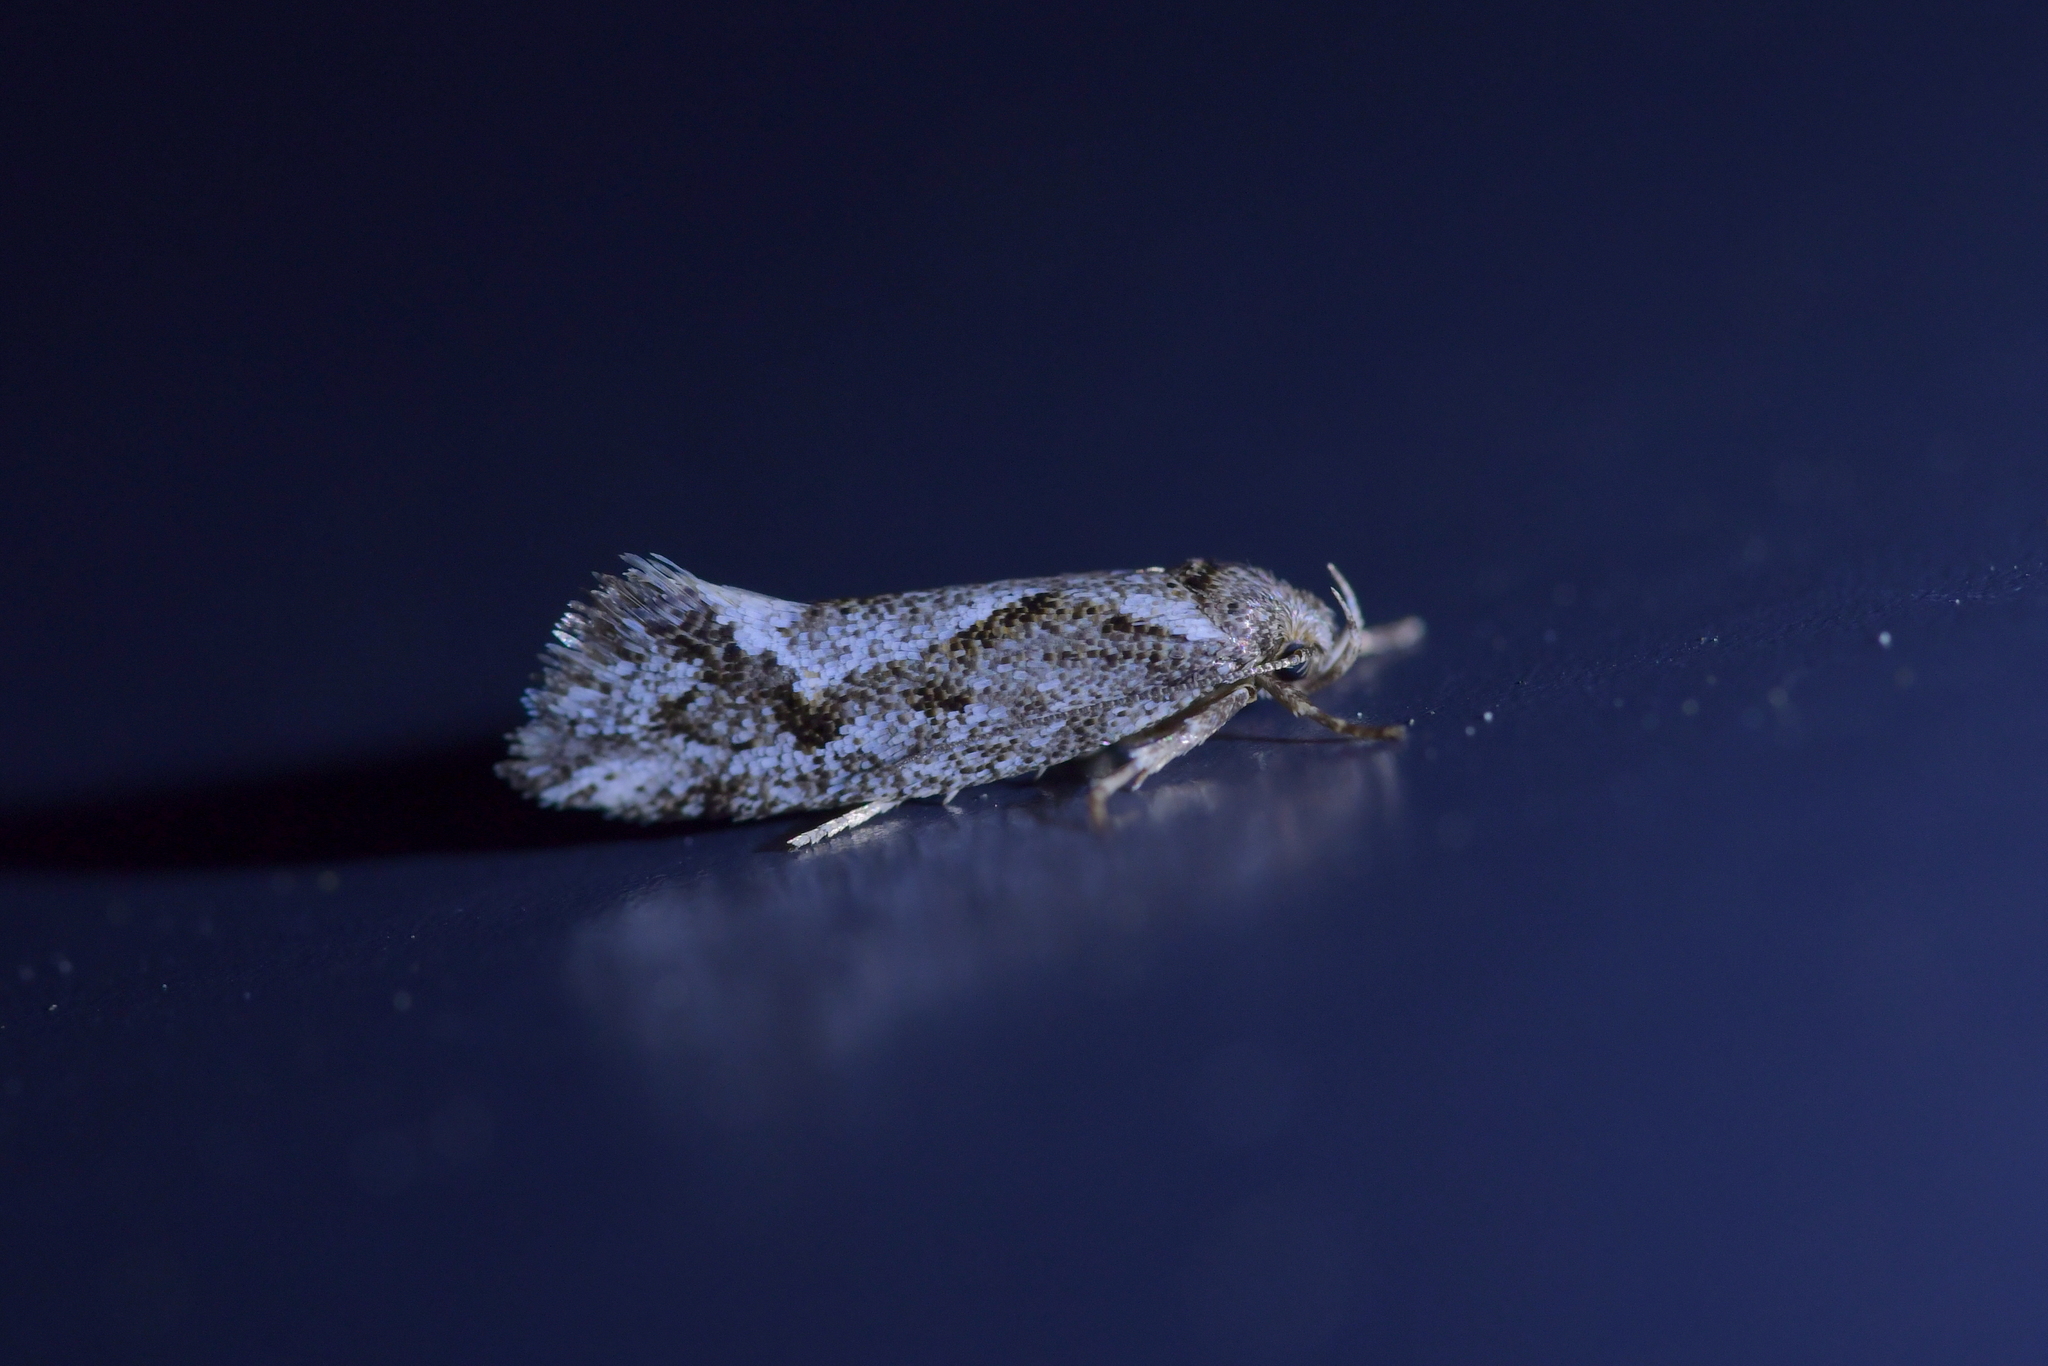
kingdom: Animalia
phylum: Arthropoda
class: Insecta
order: Lepidoptera
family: Oecophoridae
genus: Tingena
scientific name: Tingena hemimochla
